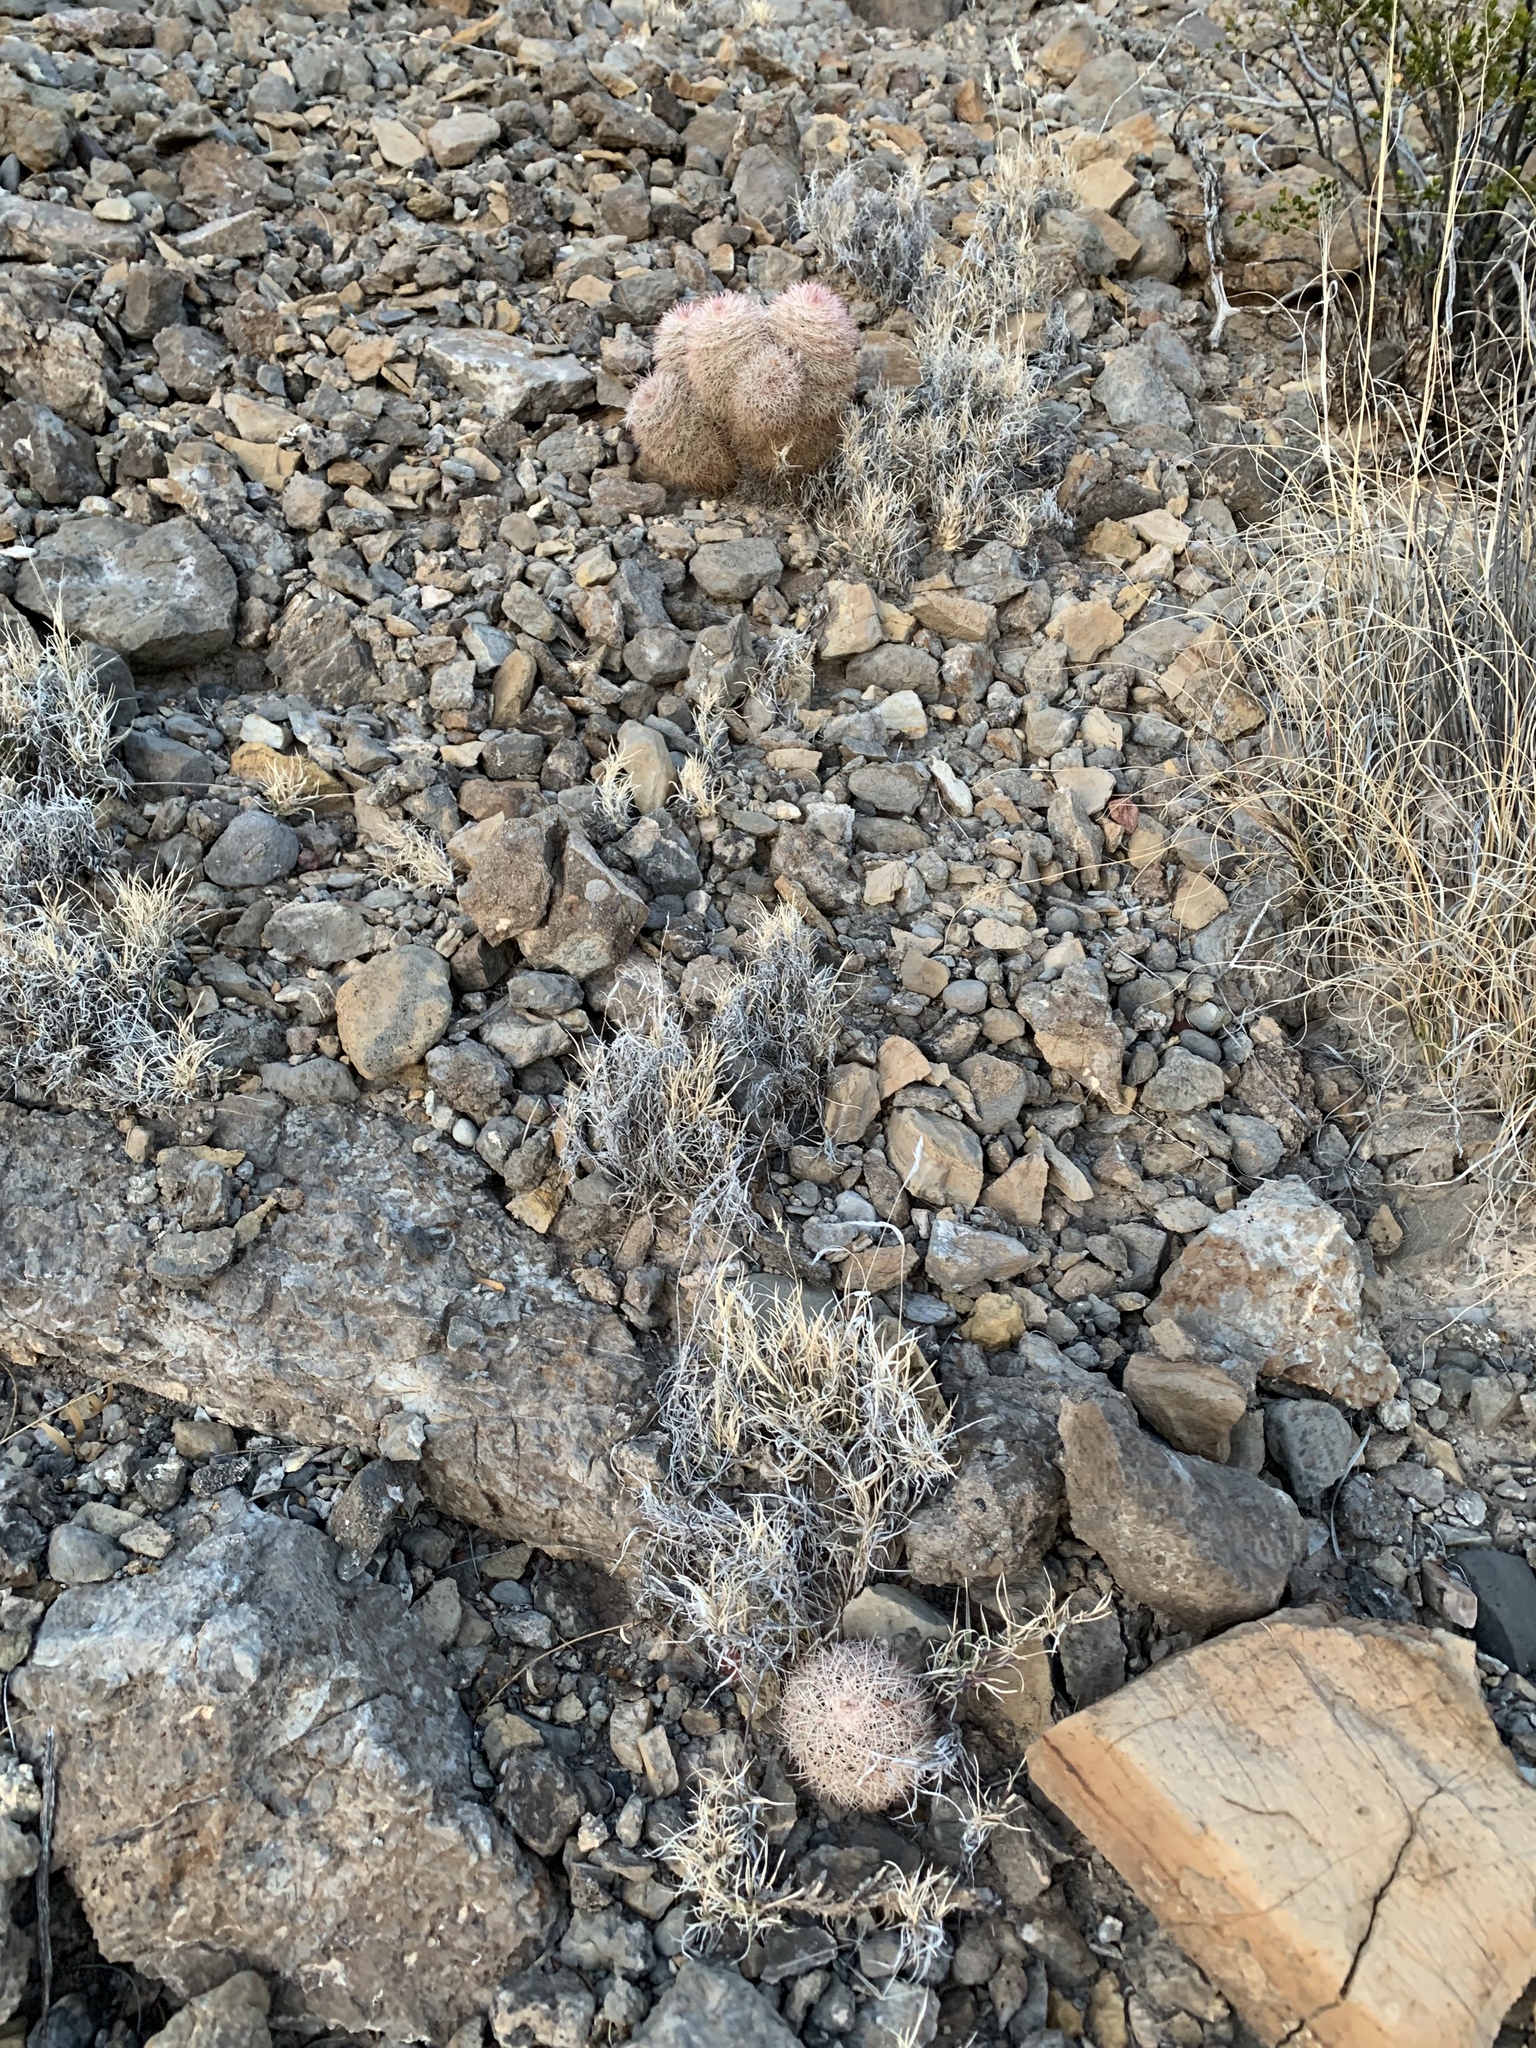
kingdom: Plantae
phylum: Tracheophyta
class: Magnoliopsida
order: Caryophyllales
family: Cactaceae
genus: Echinocereus
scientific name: Echinocereus dasyacanthus
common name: Spiny hedgehog cactus
